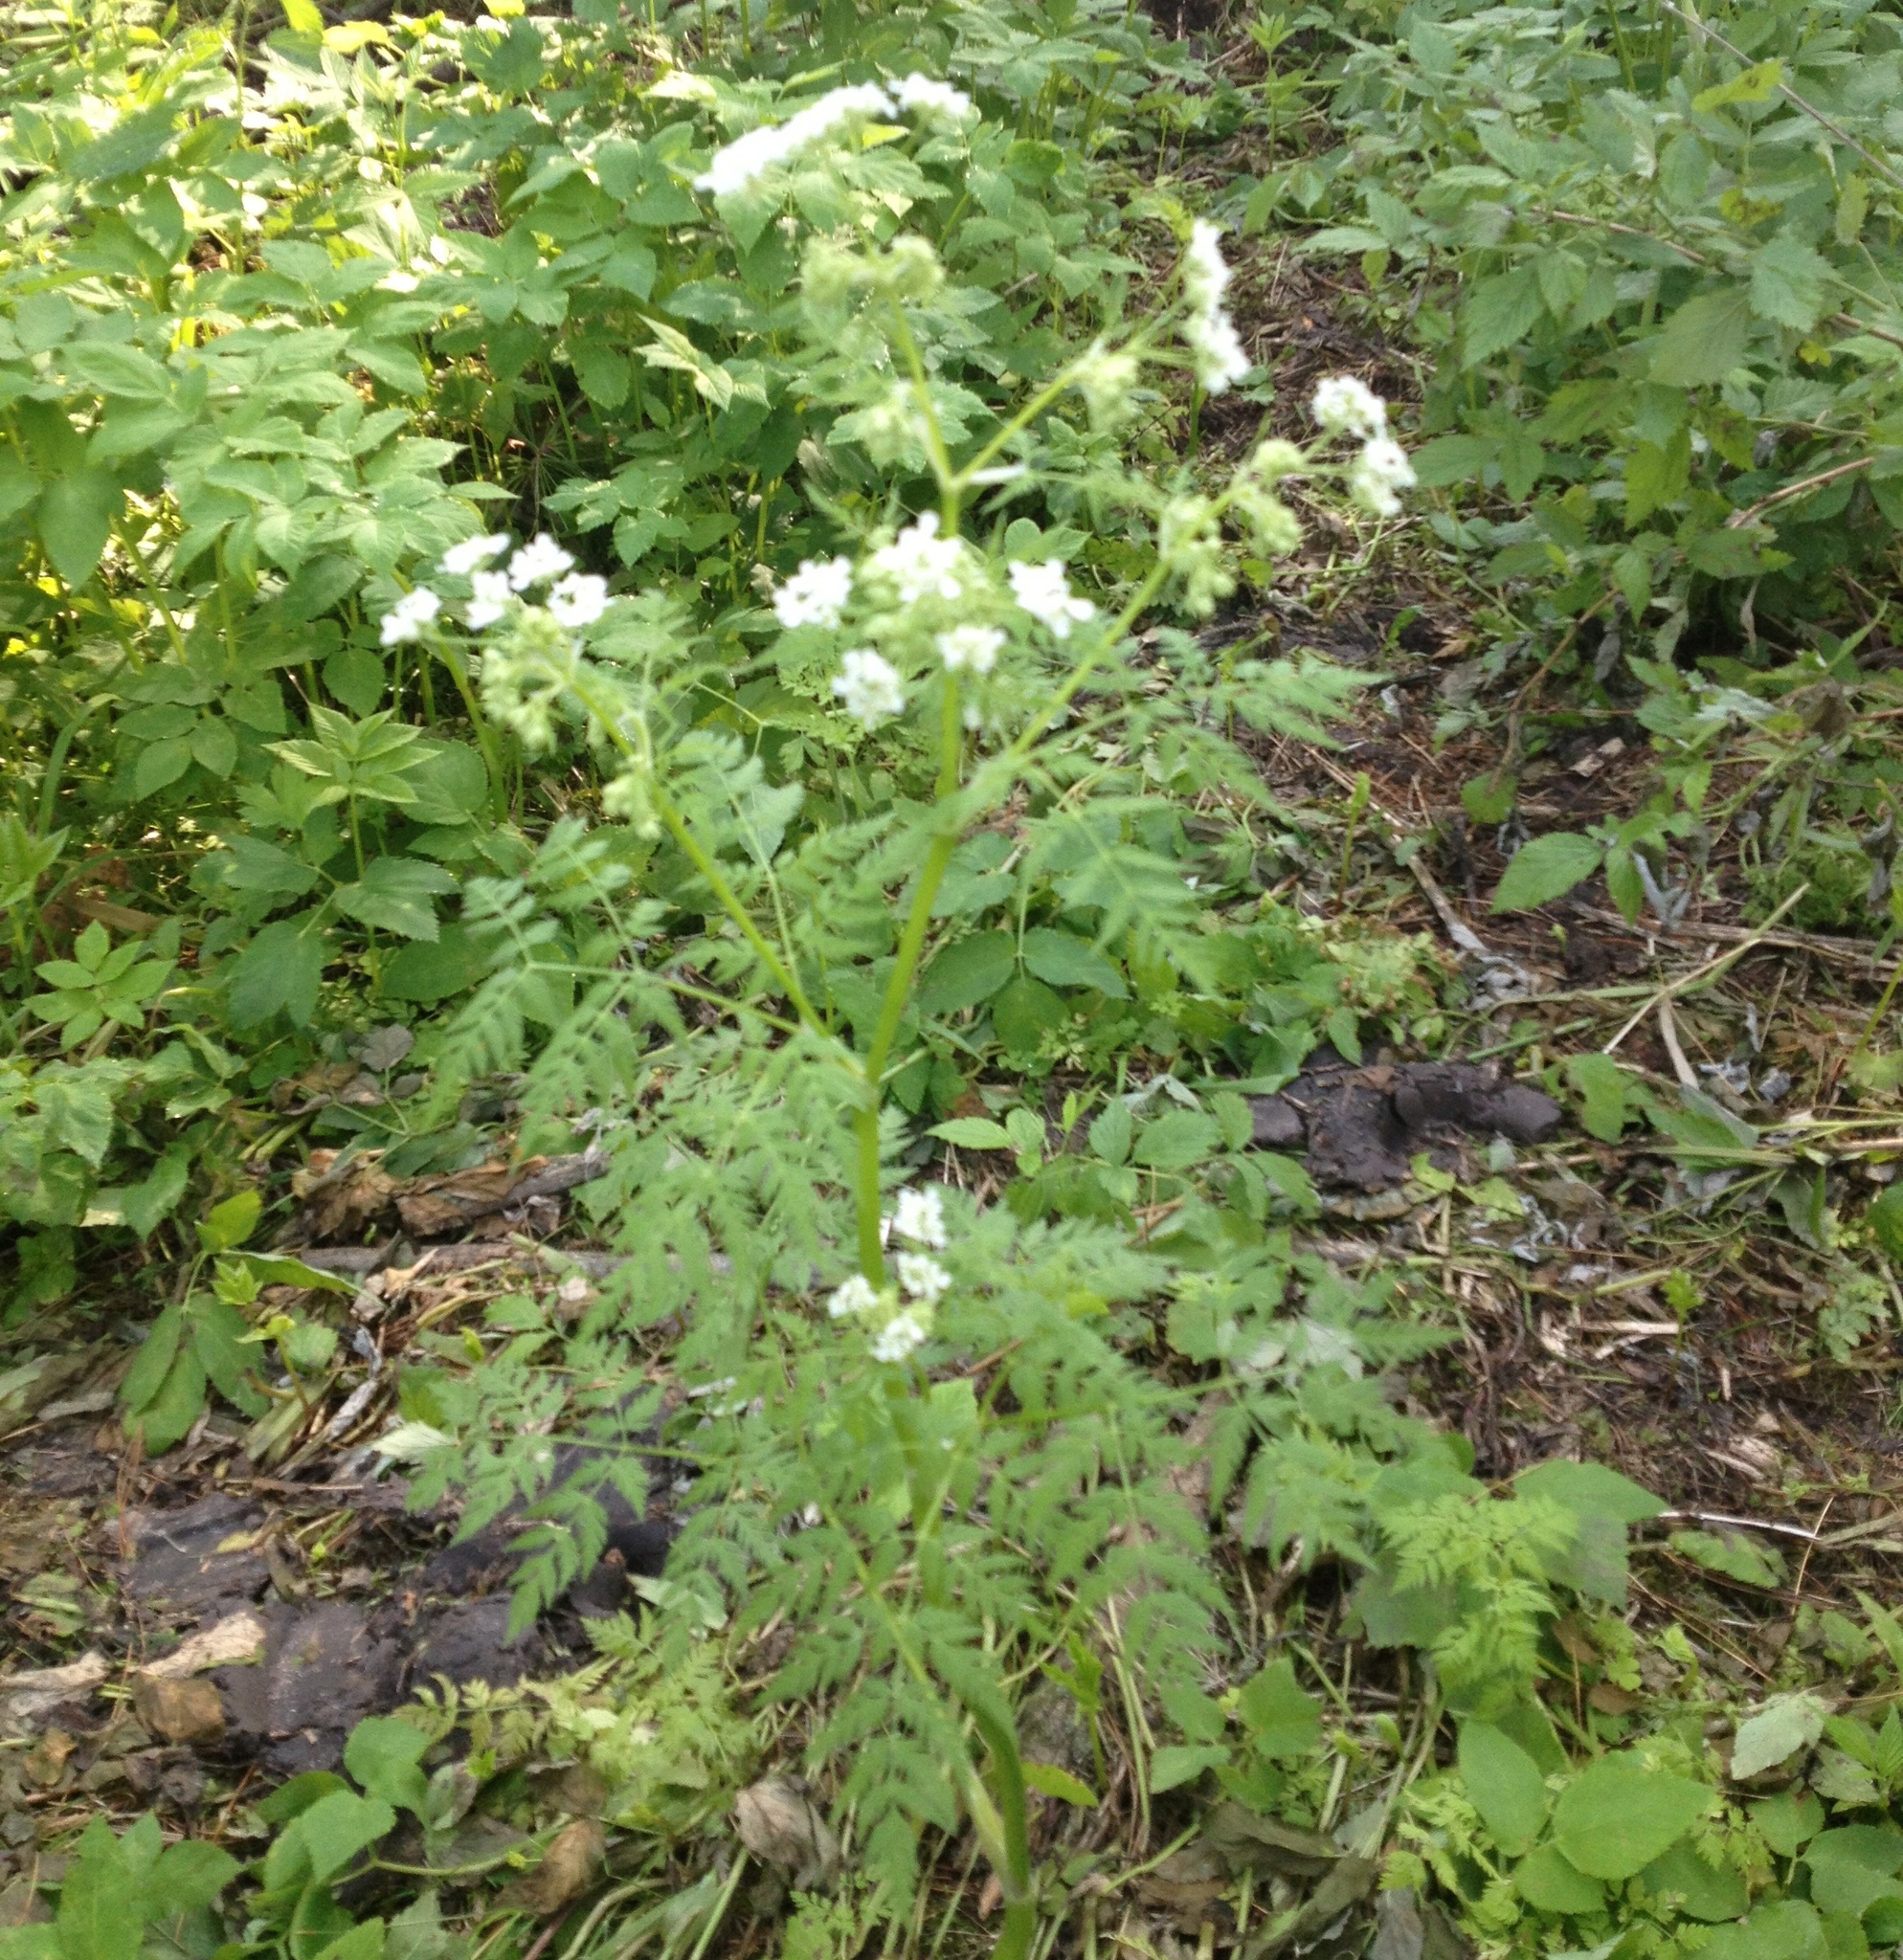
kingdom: Plantae
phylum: Tracheophyta
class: Magnoliopsida
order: Apiales
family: Apiaceae
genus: Anthriscus
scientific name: Anthriscus sylvestris
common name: Cow parsley
